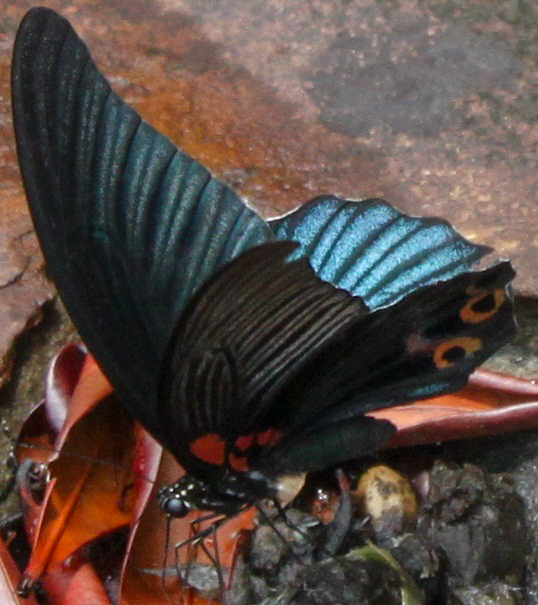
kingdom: Animalia
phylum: Arthropoda
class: Insecta
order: Lepidoptera
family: Papilionidae
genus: Papilio
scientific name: Papilio memnon
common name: Great mormon
